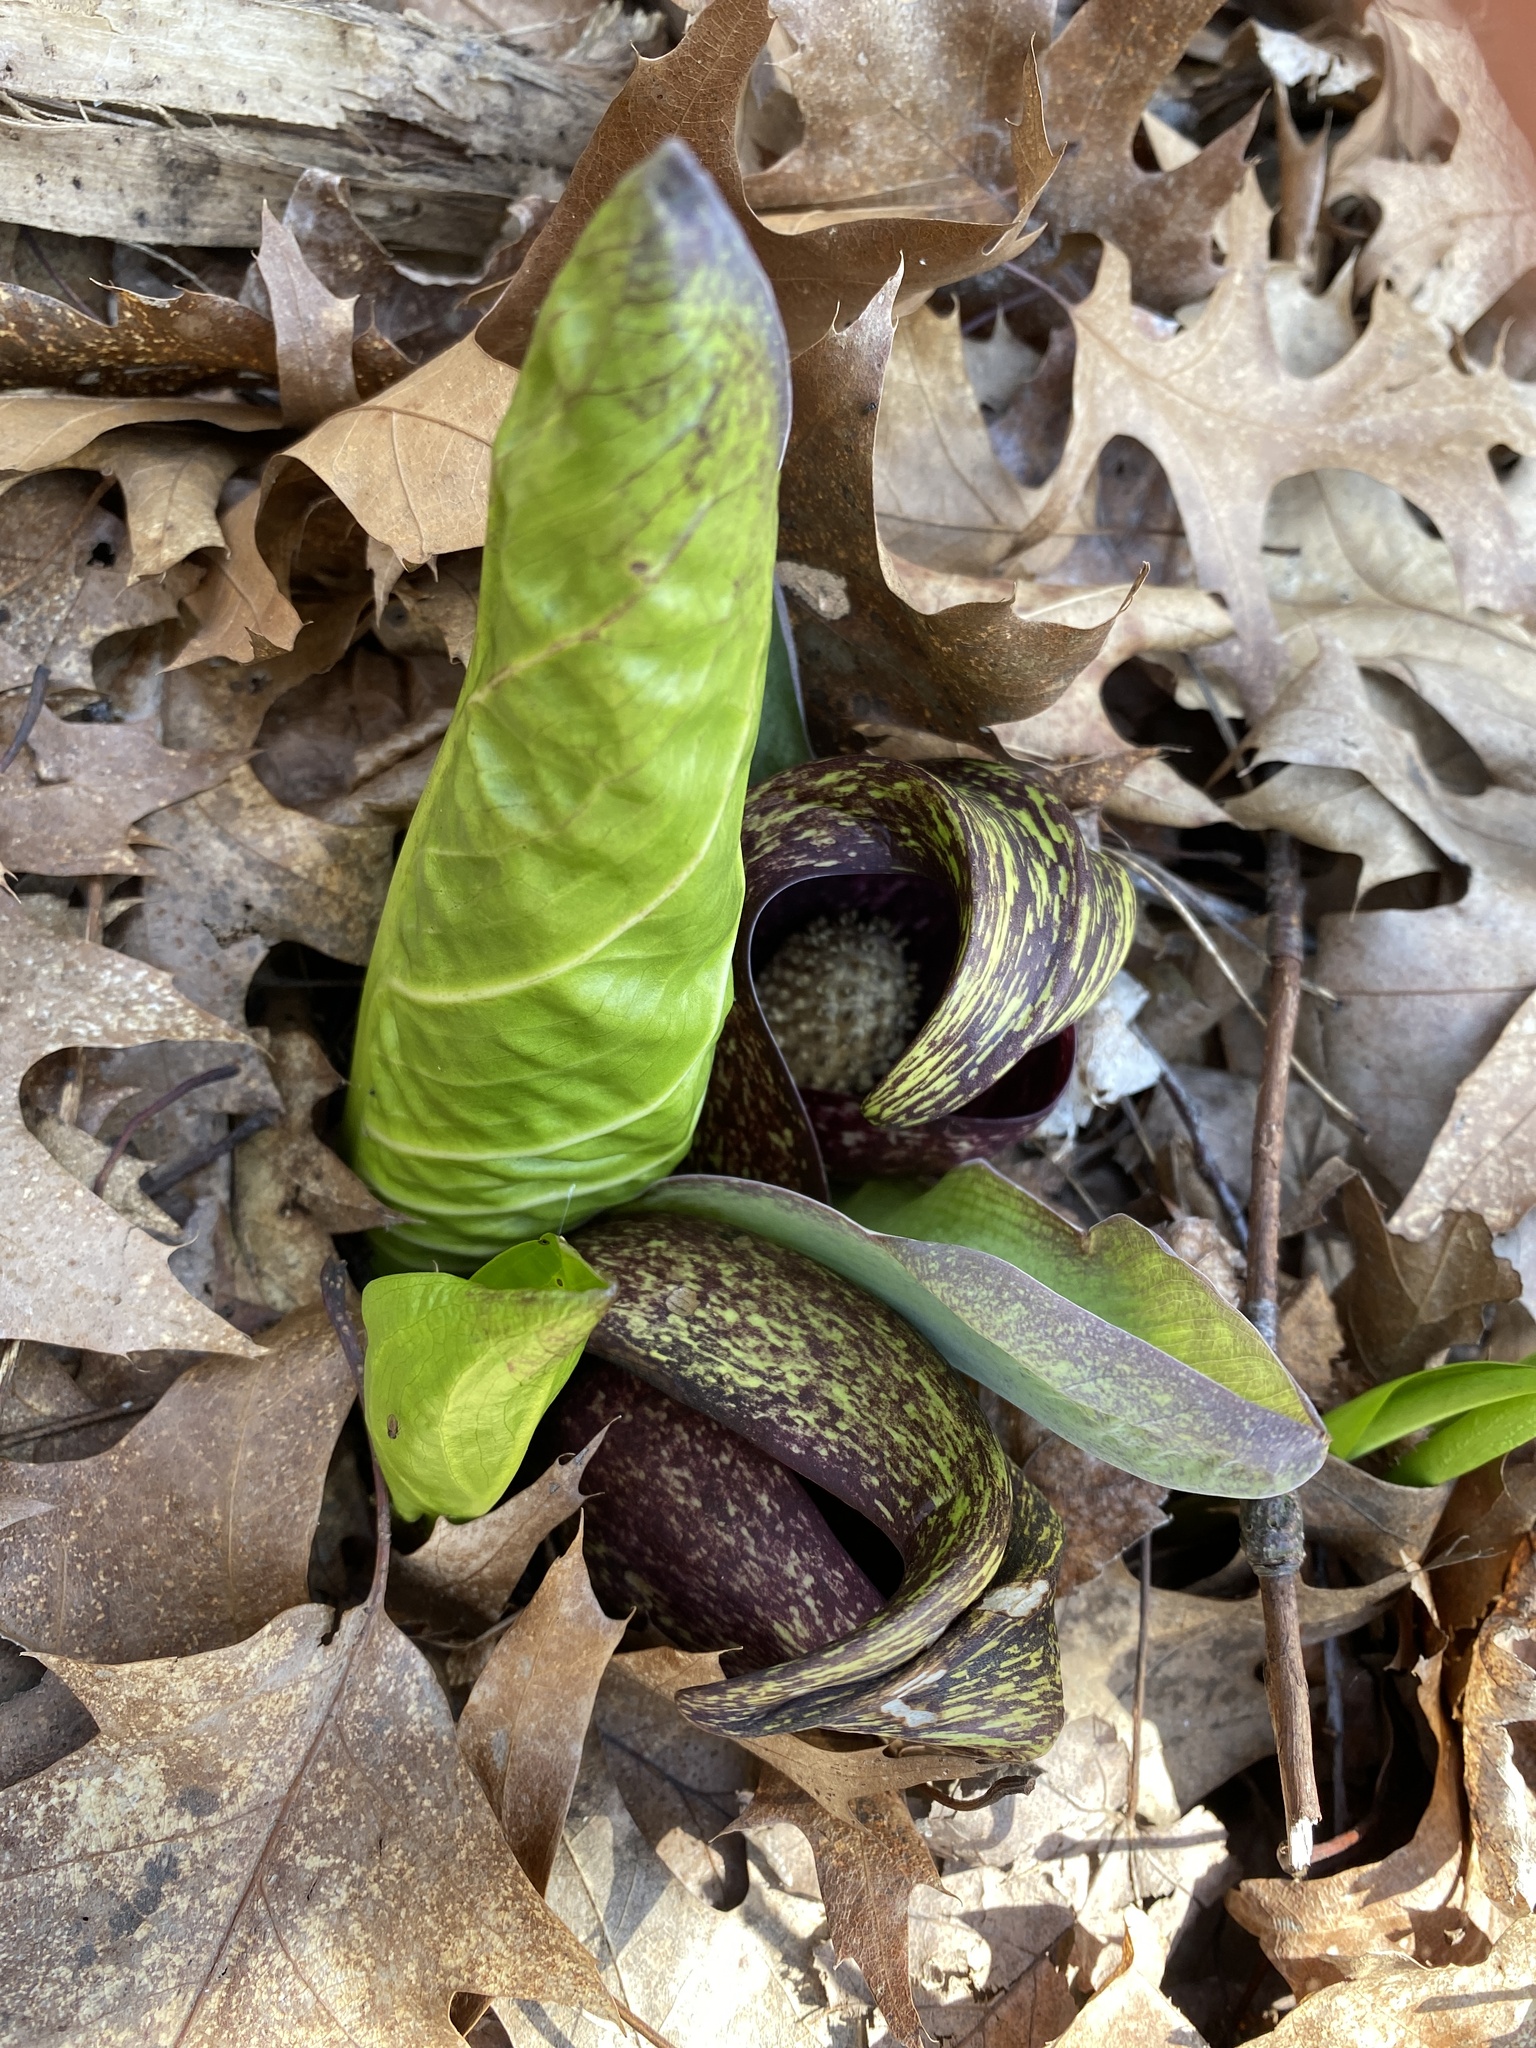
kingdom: Plantae
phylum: Tracheophyta
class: Liliopsida
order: Alismatales
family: Araceae
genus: Symplocarpus
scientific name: Symplocarpus foetidus
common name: Eastern skunk cabbage
